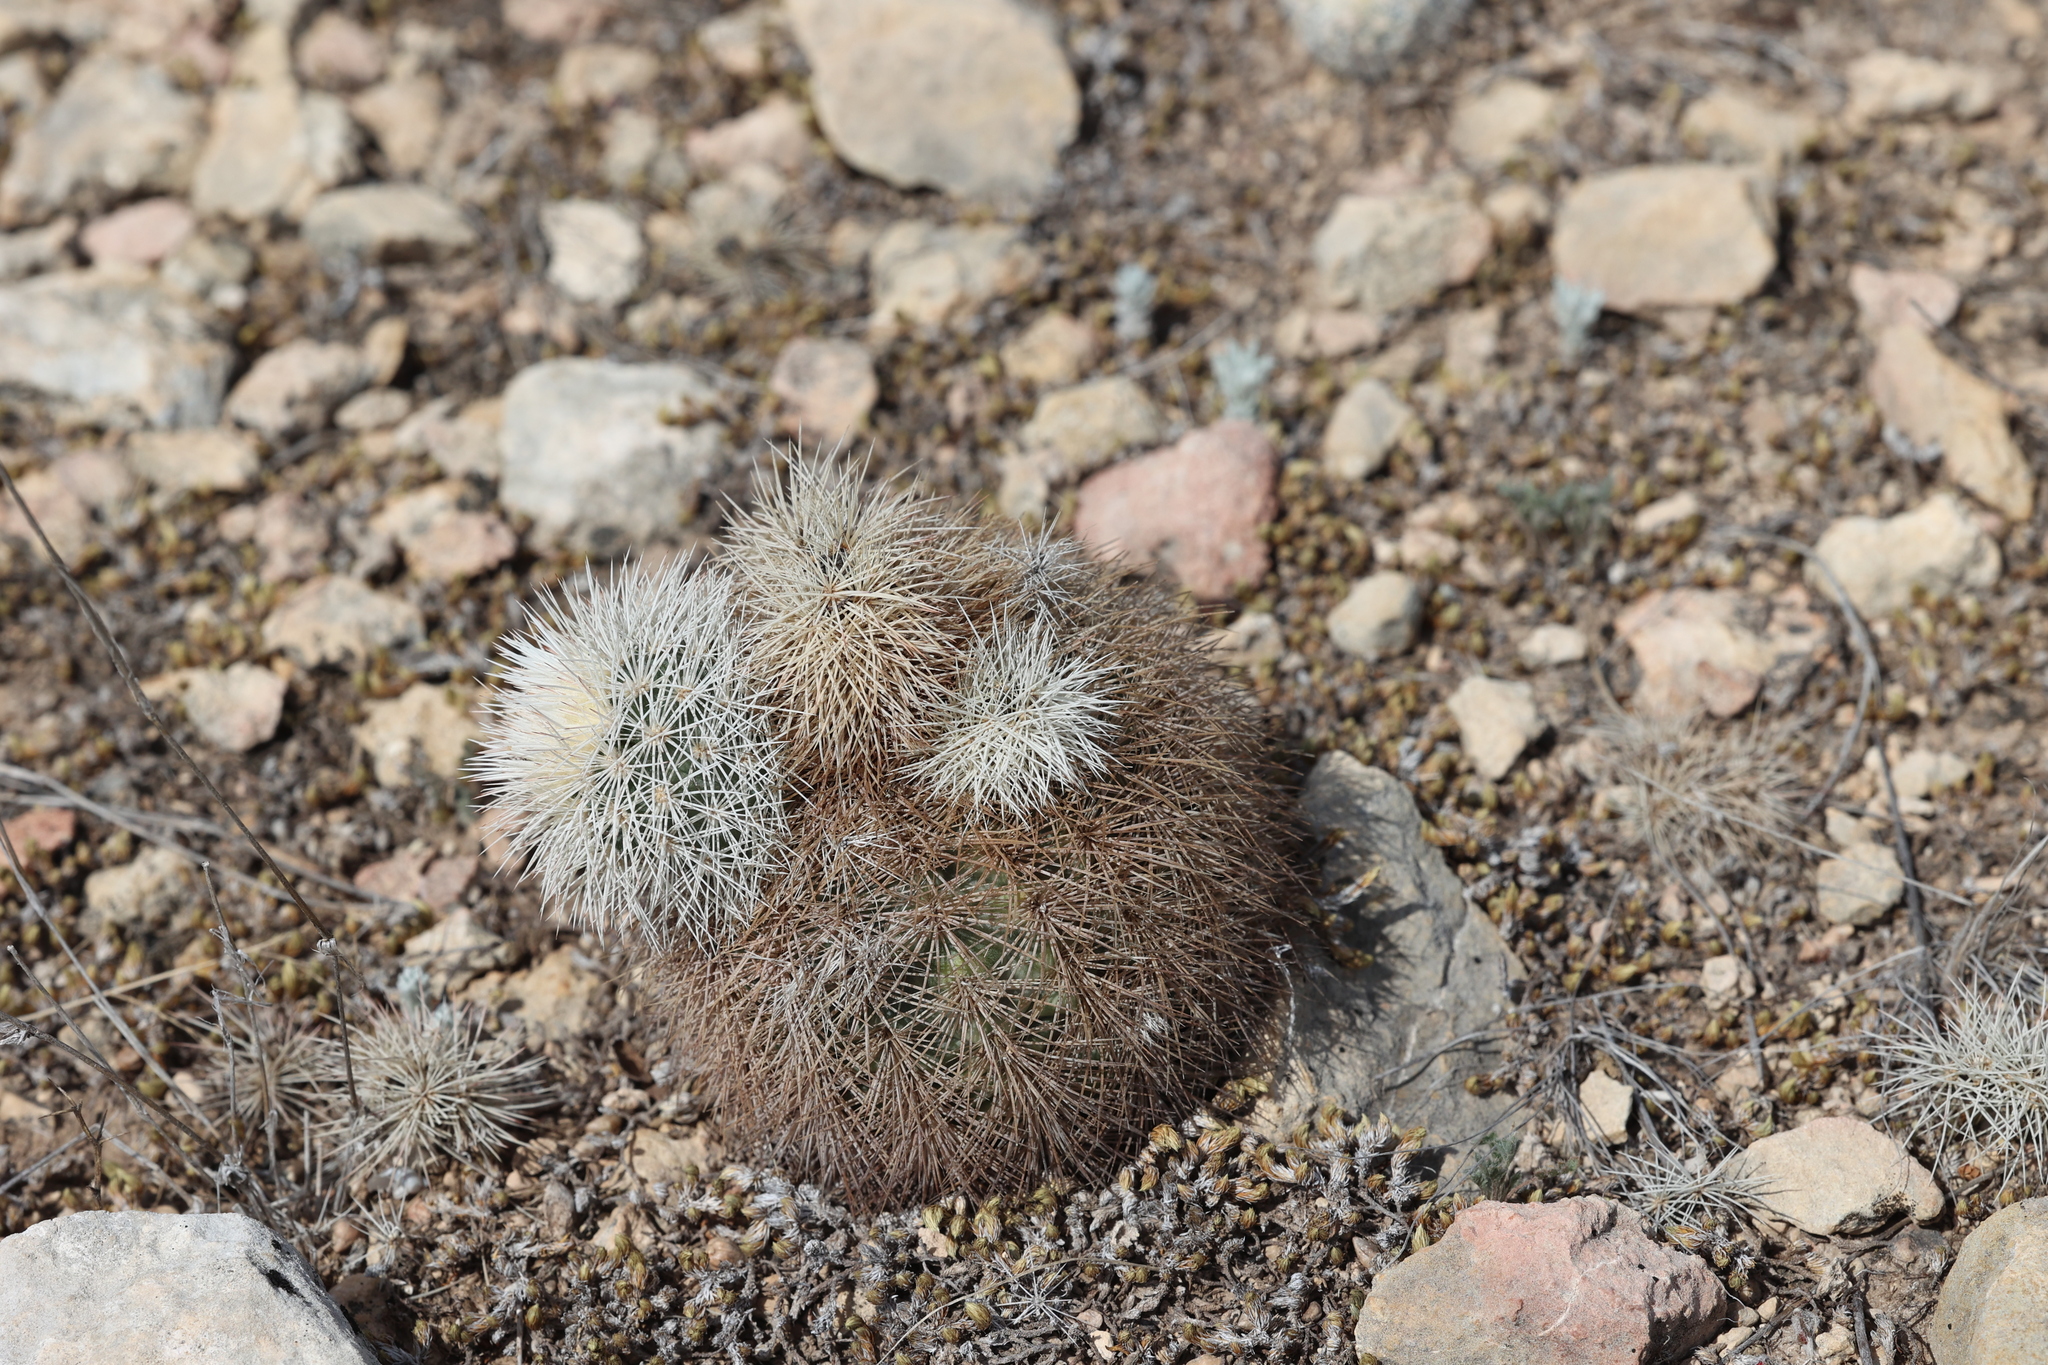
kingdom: Plantae
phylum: Tracheophyta
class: Magnoliopsida
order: Caryophyllales
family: Cactaceae
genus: Echinocereus
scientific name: Echinocereus dasyacanthus
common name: Spiny hedgehog cactus
